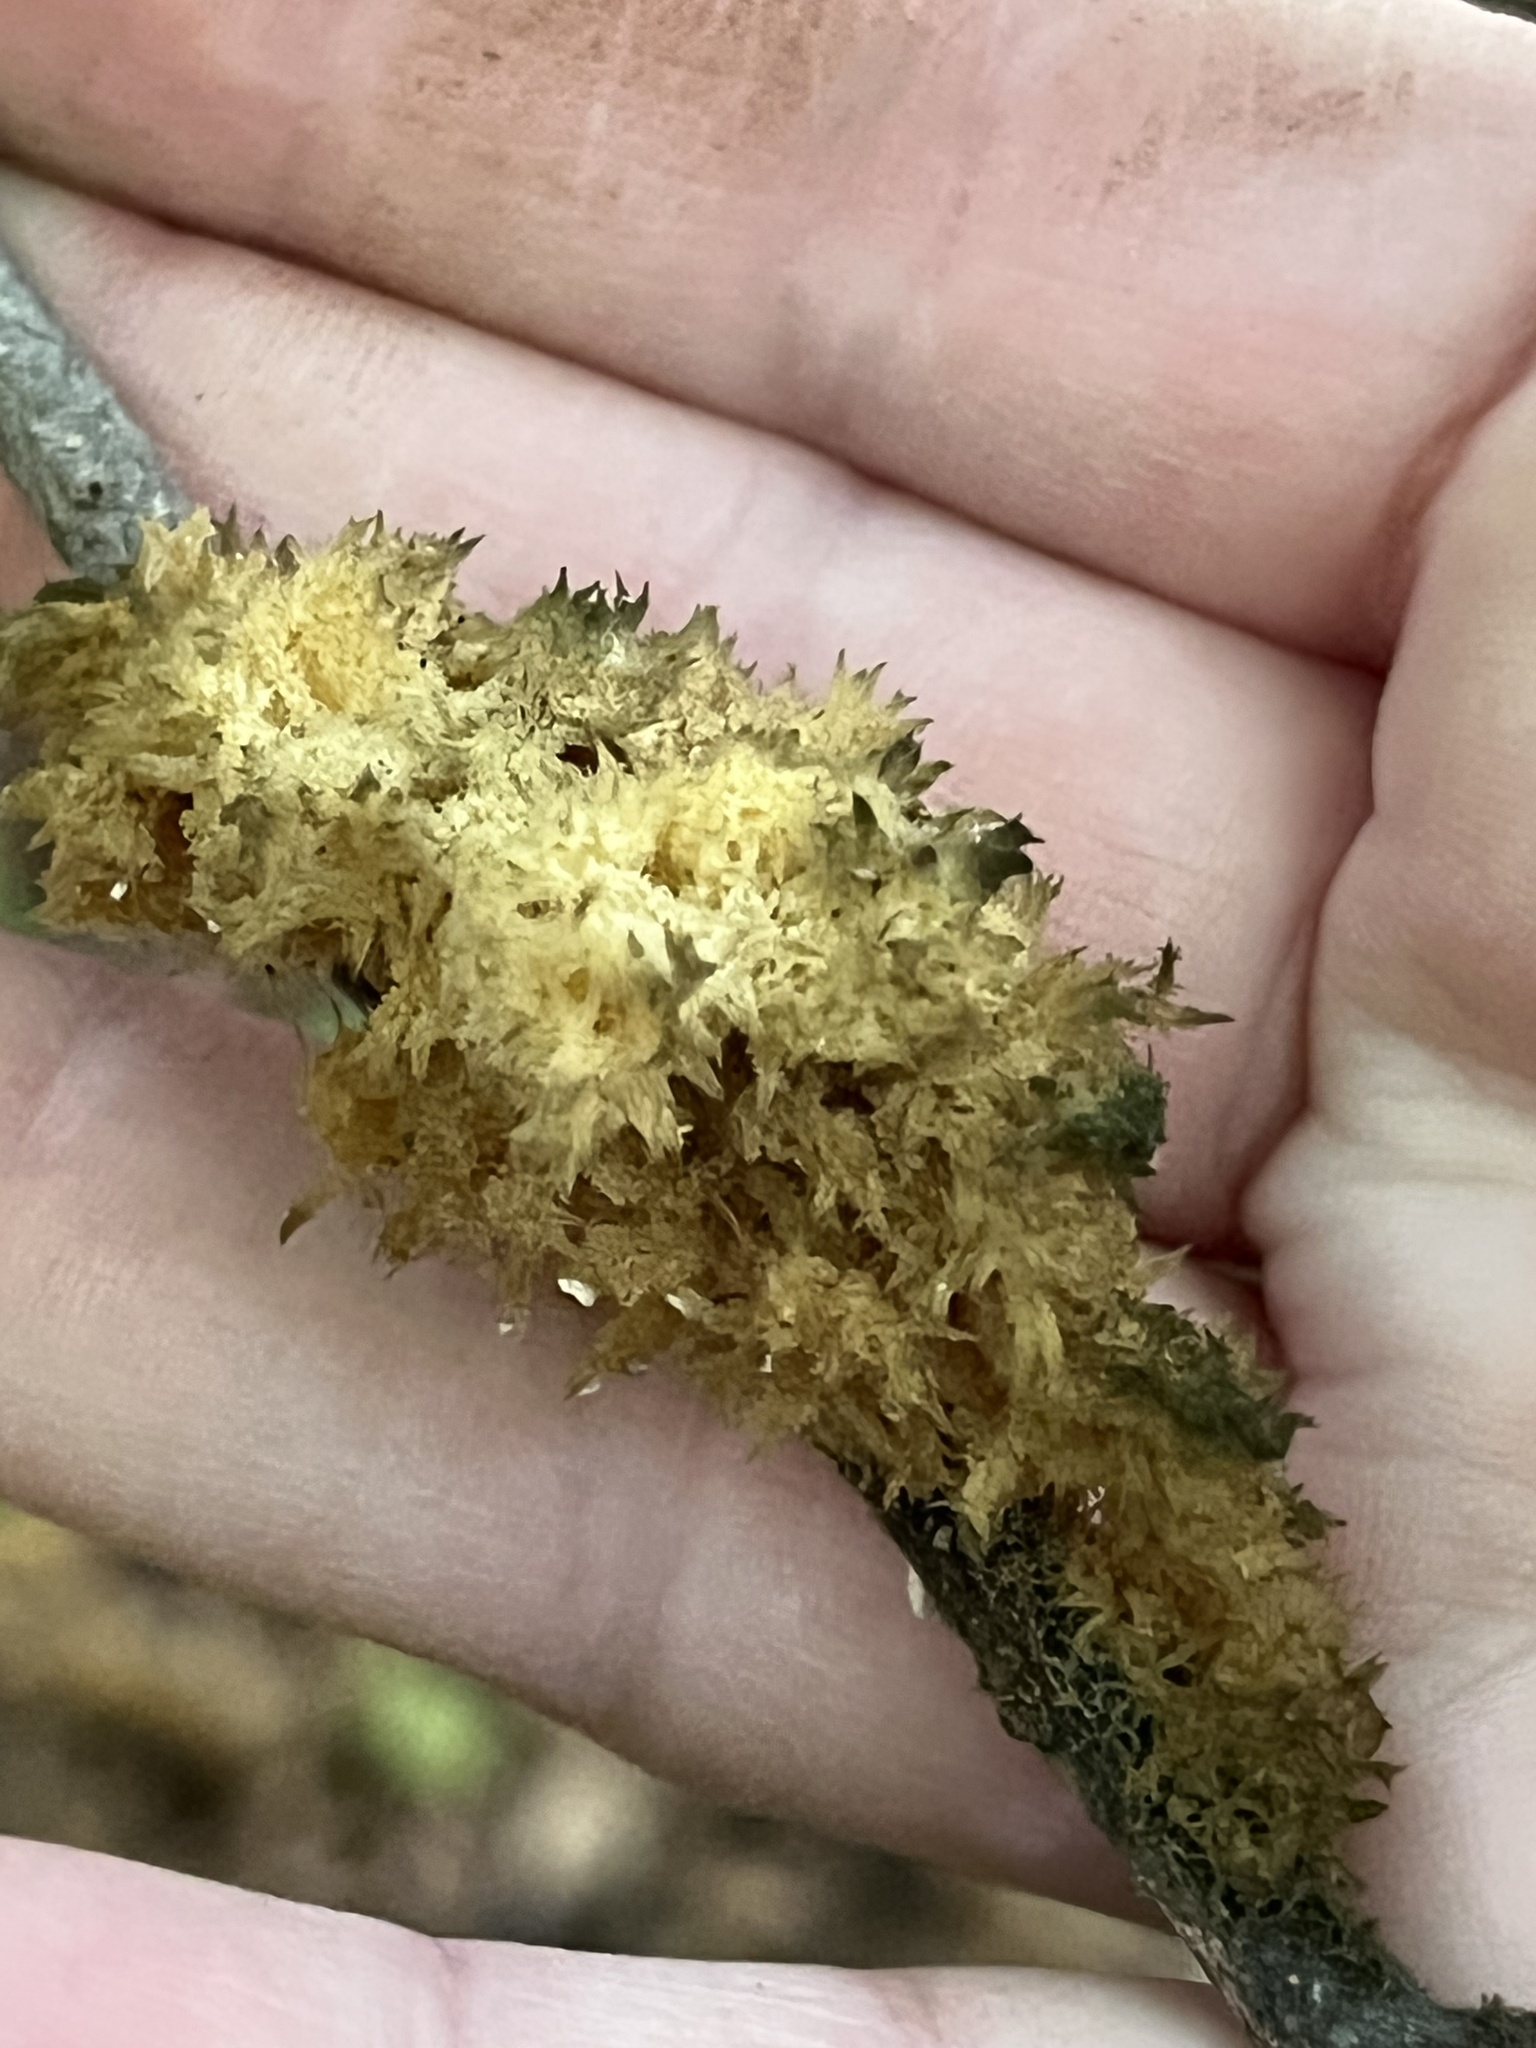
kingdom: Fungi
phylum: Ascomycota
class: Dothideomycetes
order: Capnodiales
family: Capnodiaceae
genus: Scorias
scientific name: Scorias spongiosa
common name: Black sooty mold
